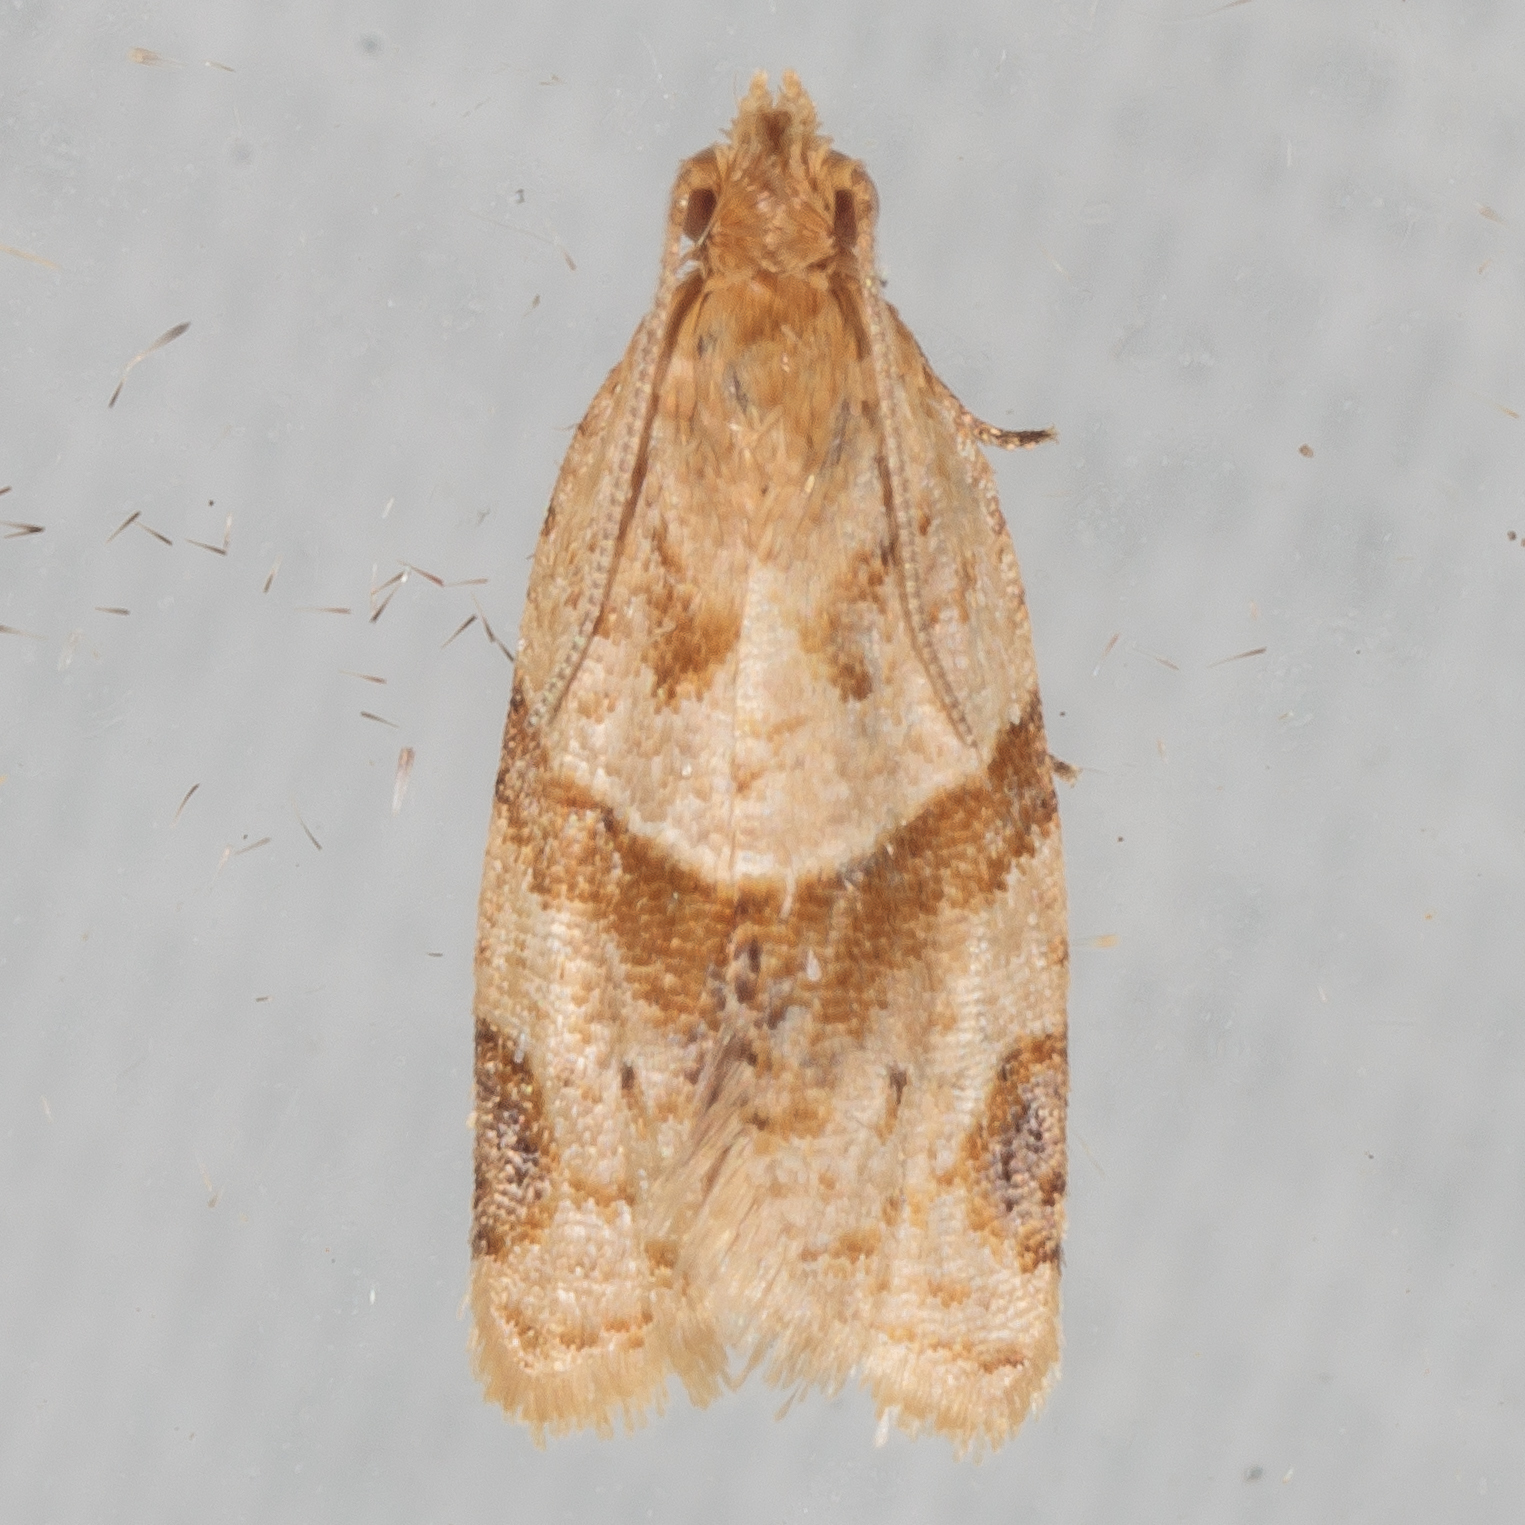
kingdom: Animalia
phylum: Arthropoda
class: Insecta
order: Lepidoptera
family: Tortricidae
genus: Clepsis
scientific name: Clepsis peritana
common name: Garden tortrix
